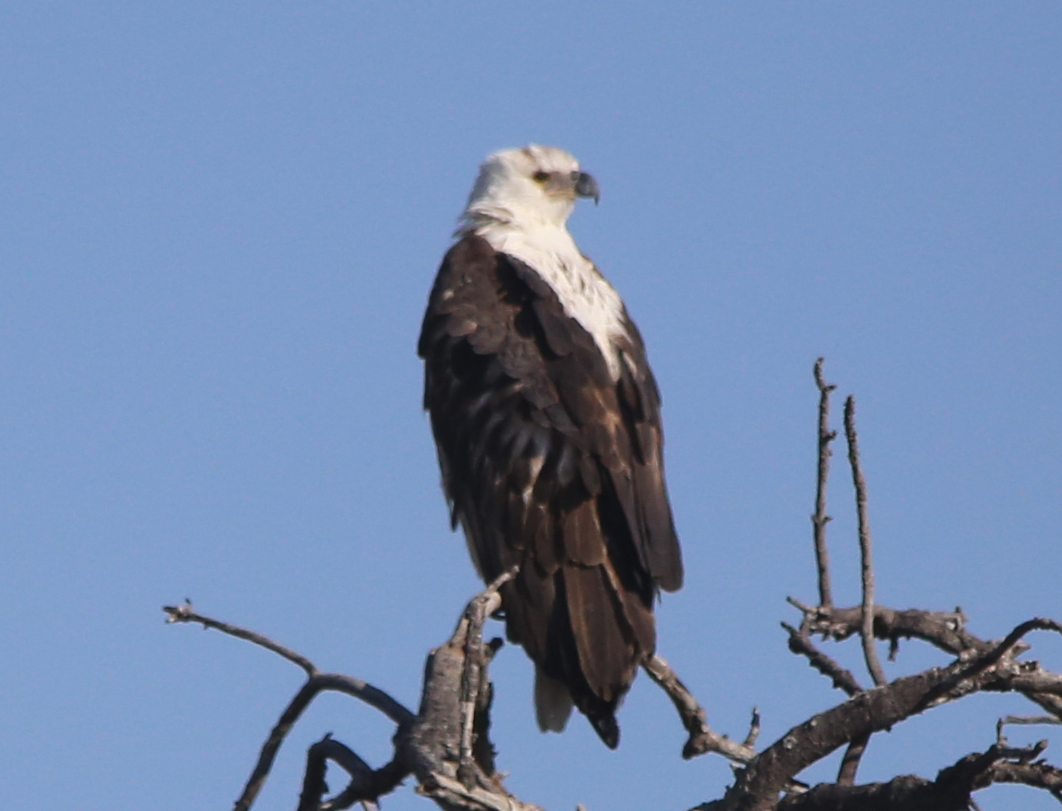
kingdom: Animalia
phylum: Chordata
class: Aves
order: Accipitriformes
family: Accipitridae
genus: Haliaeetus
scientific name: Haliaeetus vocifer
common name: African fish eagle
